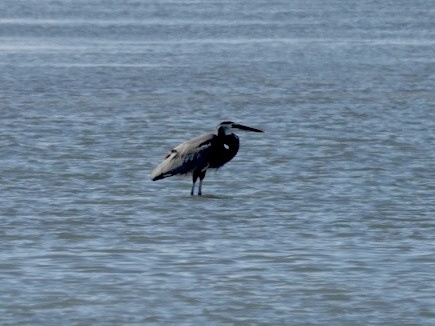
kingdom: Animalia
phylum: Chordata
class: Aves
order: Pelecaniformes
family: Ardeidae
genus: Ardea
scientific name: Ardea herodias
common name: Great blue heron
